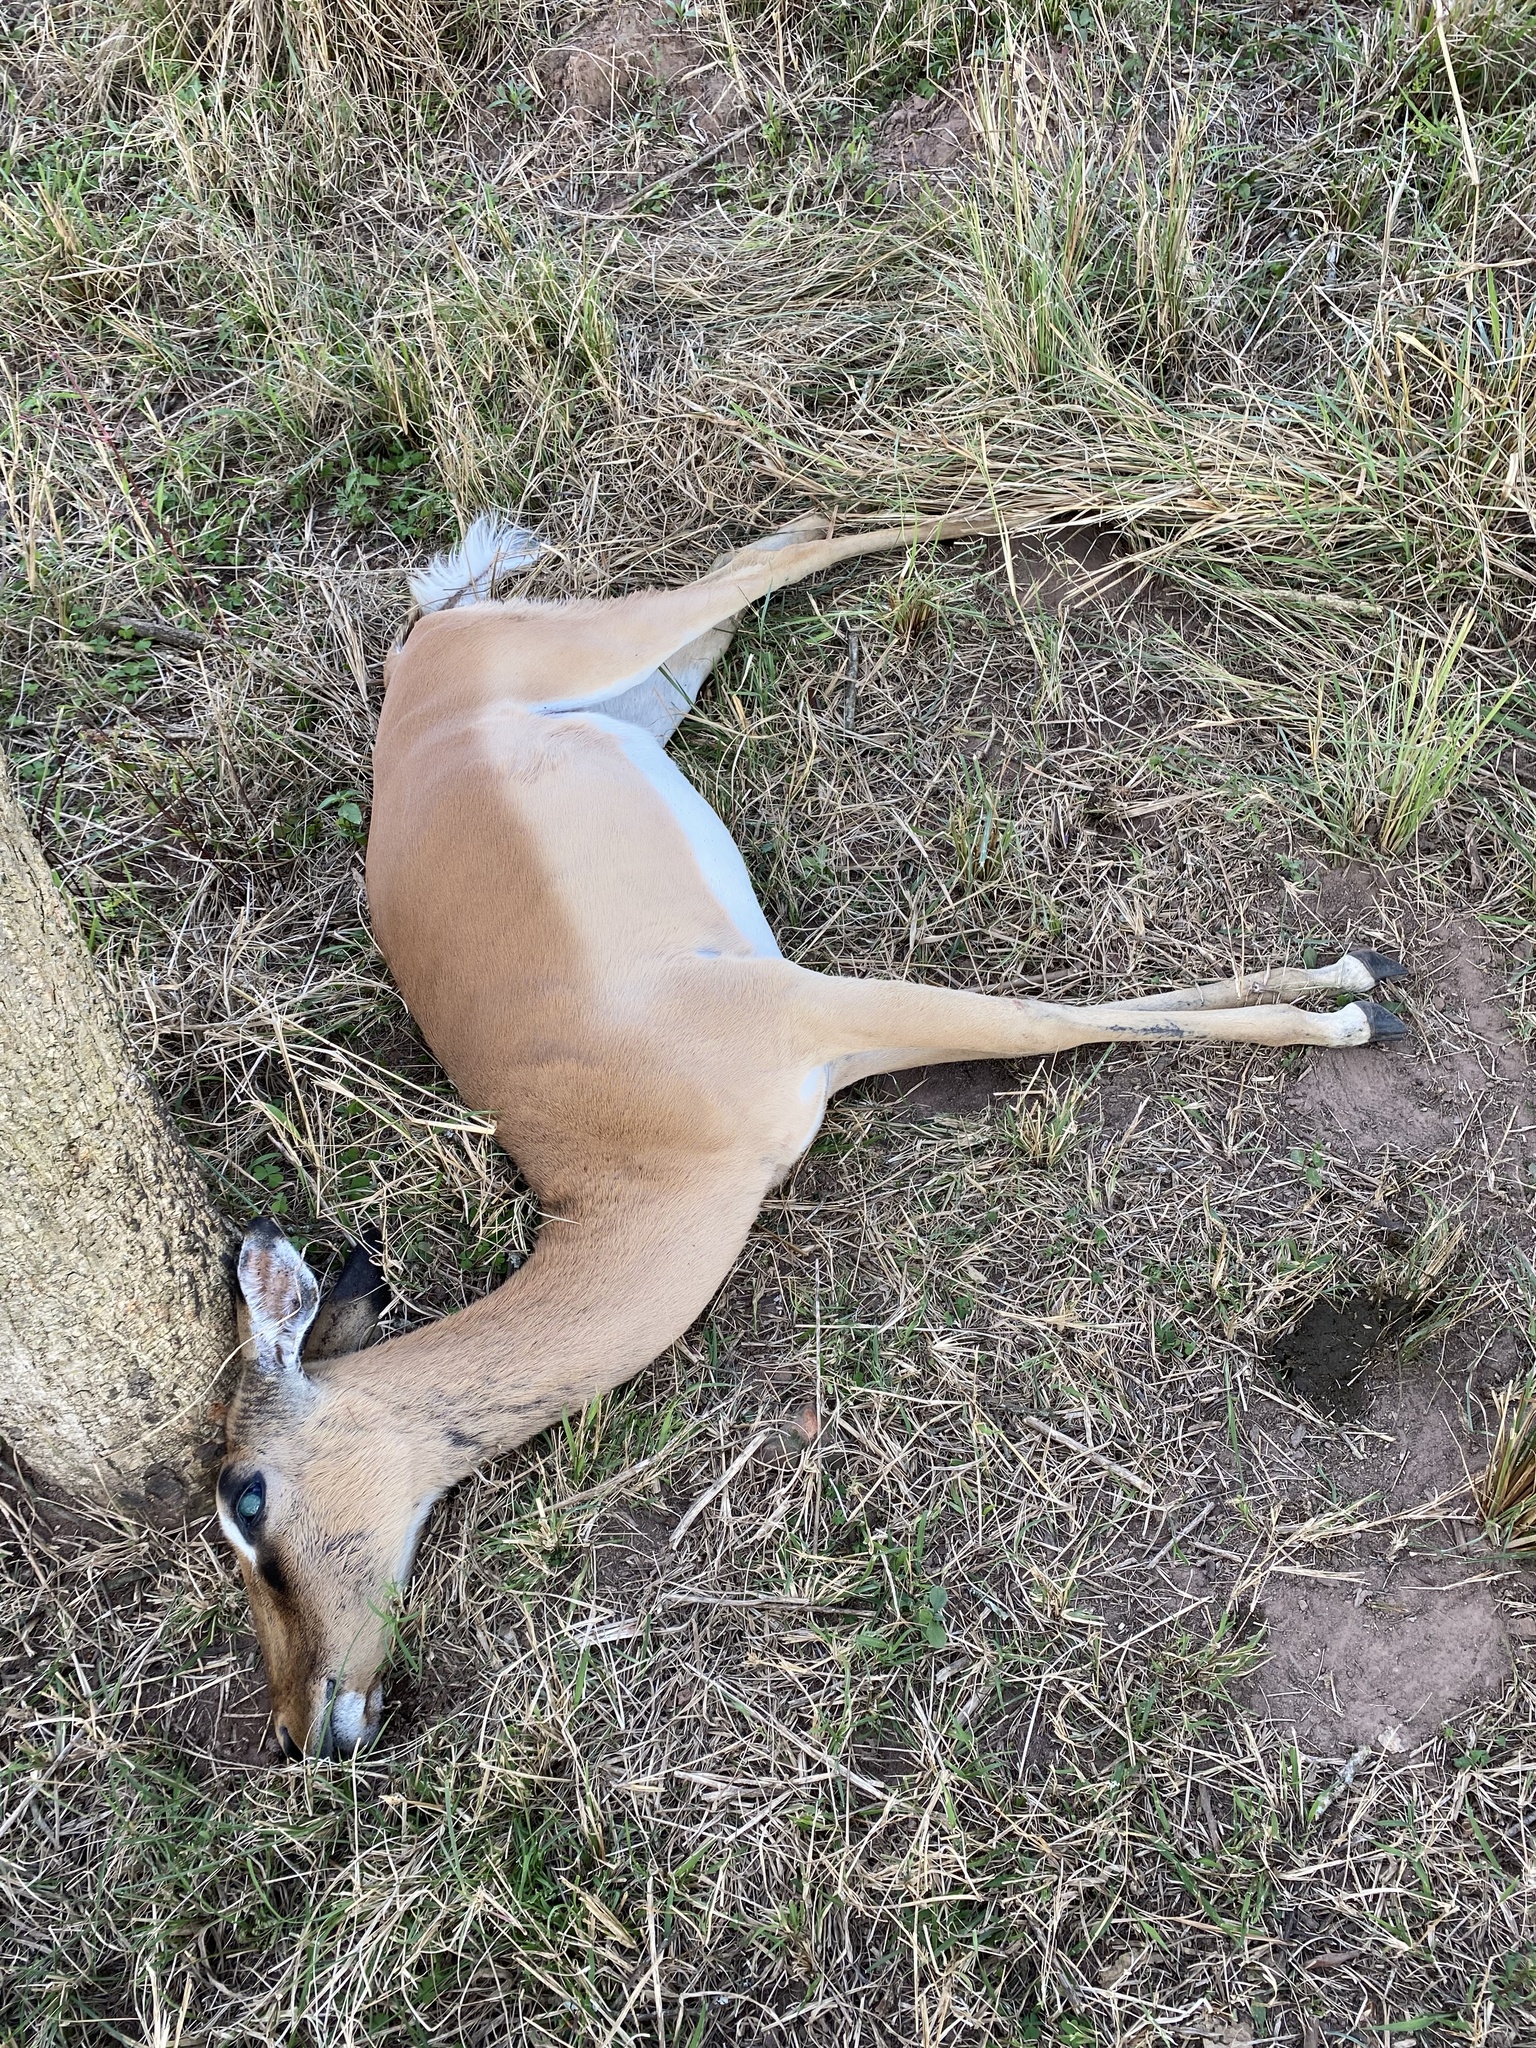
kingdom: Animalia
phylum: Chordata
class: Mammalia
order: Artiodactyla
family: Bovidae
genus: Aepyceros
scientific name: Aepyceros melampus
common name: Impala
